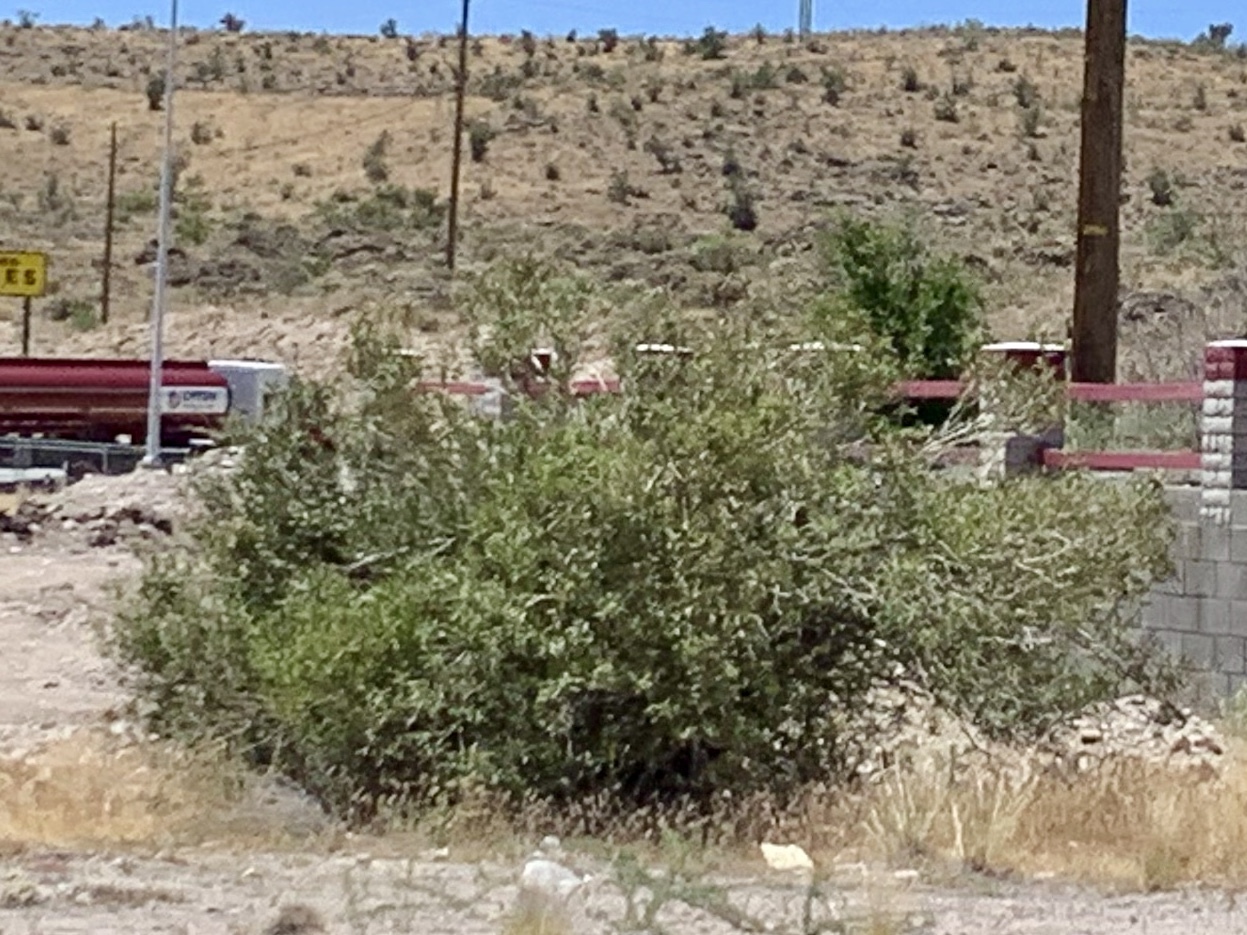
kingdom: Plantae
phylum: Tracheophyta
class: Magnoliopsida
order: Zygophyllales
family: Zygophyllaceae
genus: Larrea
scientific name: Larrea tridentata
